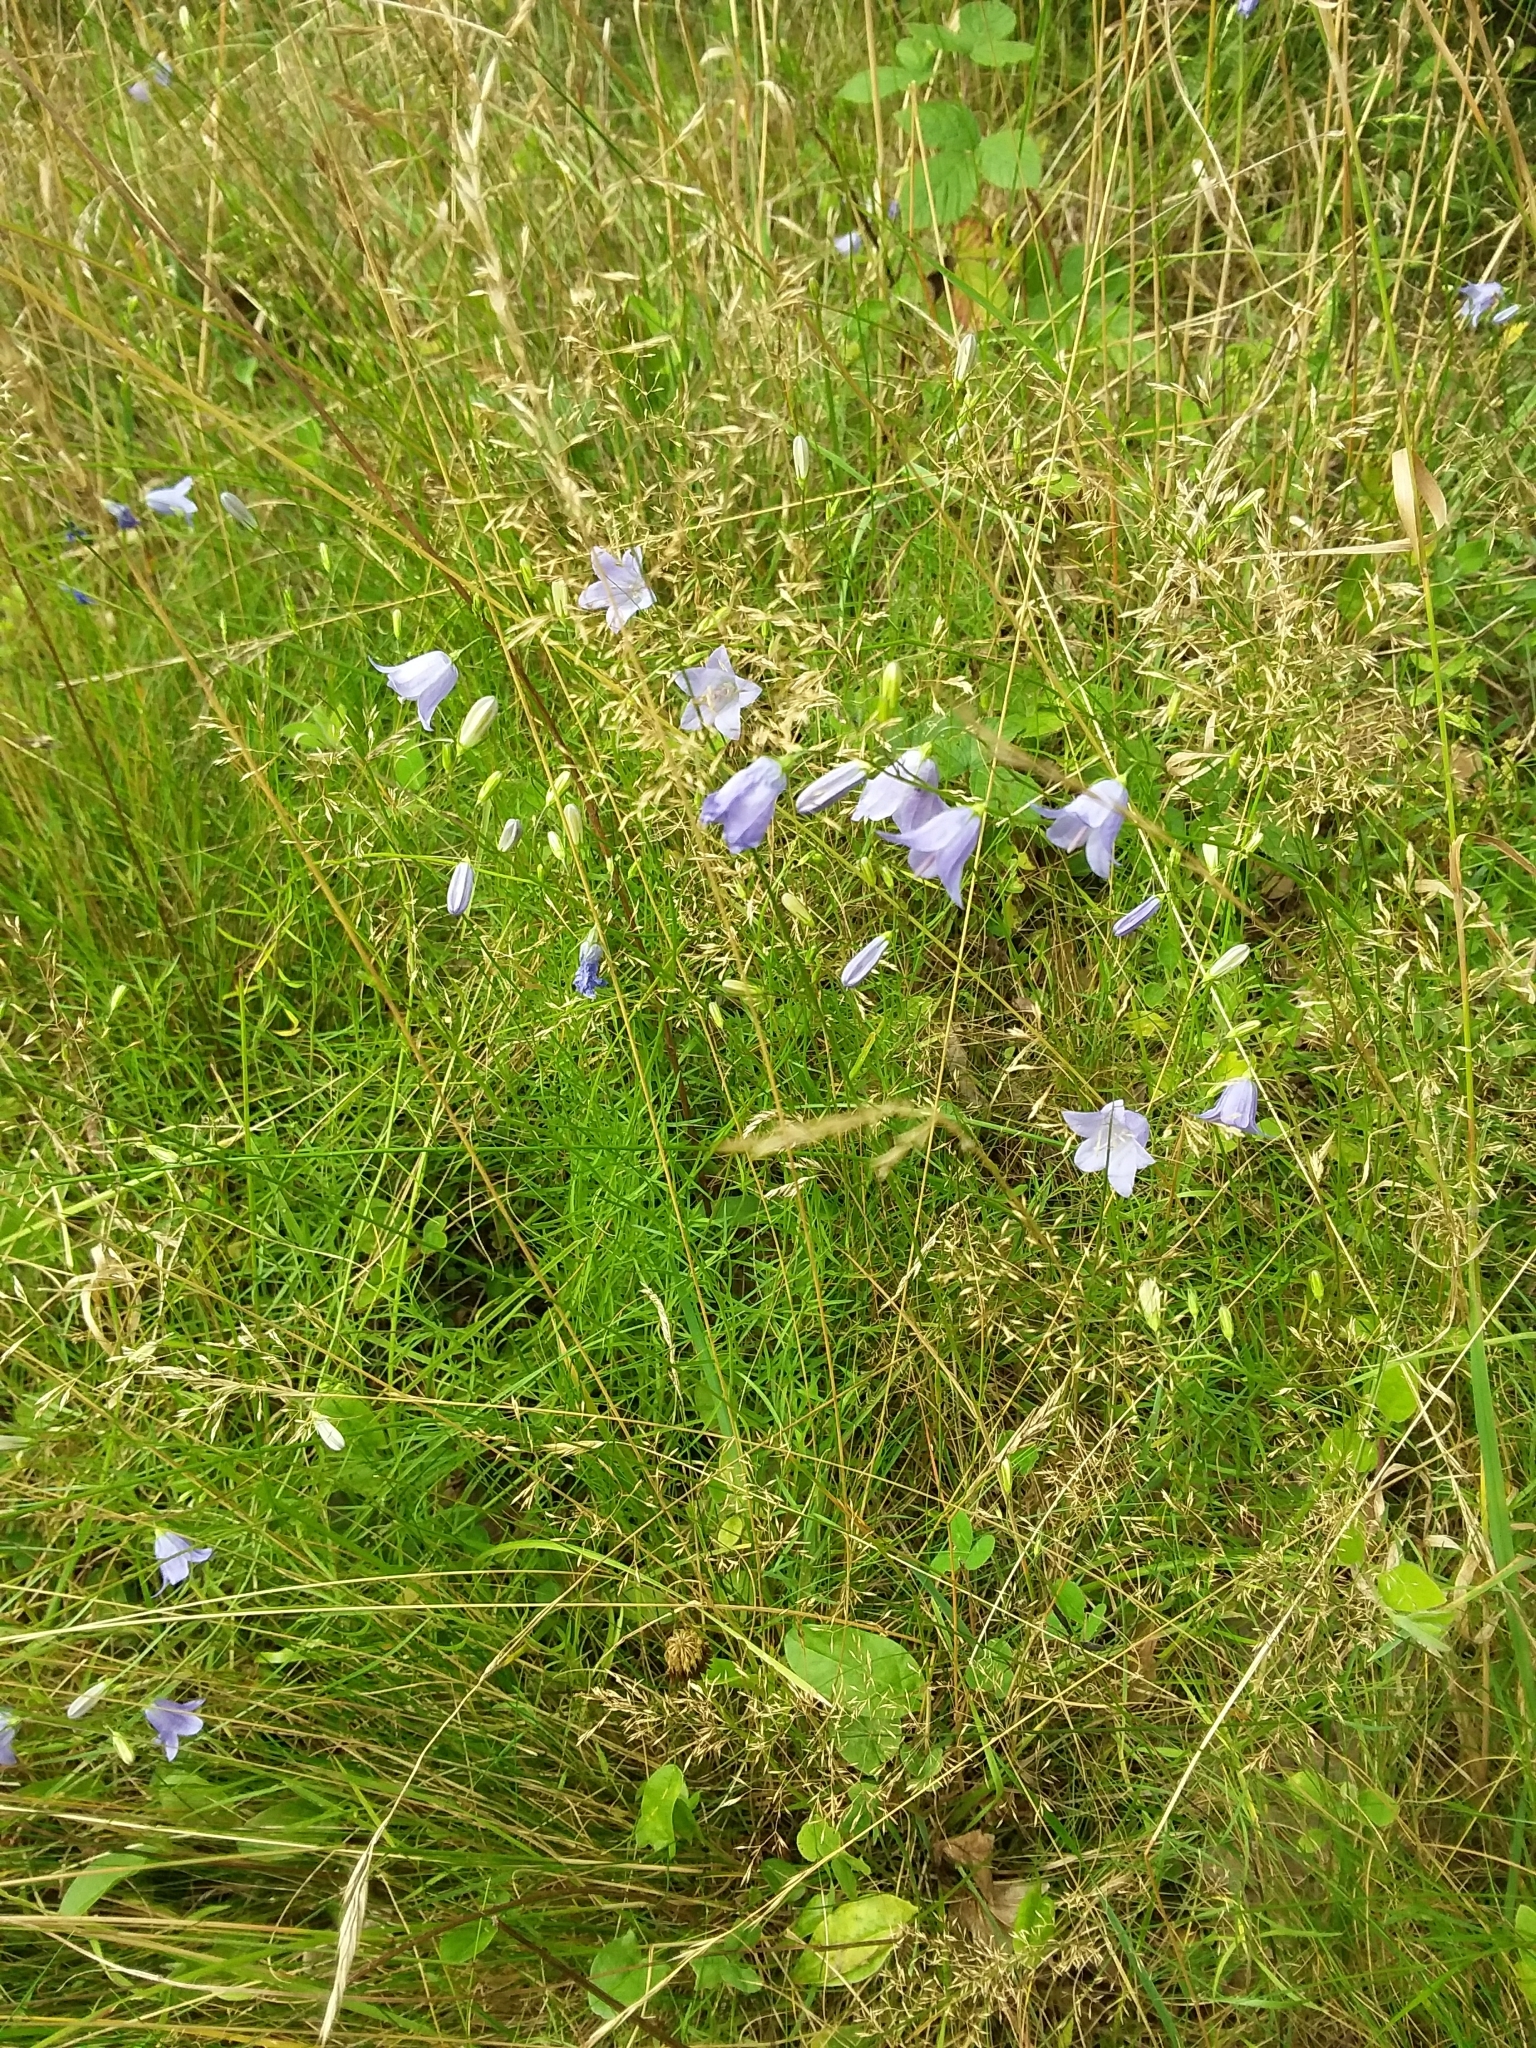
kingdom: Plantae
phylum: Tracheophyta
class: Magnoliopsida
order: Asterales
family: Campanulaceae
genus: Campanula
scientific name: Campanula rotundifolia
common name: Harebell
